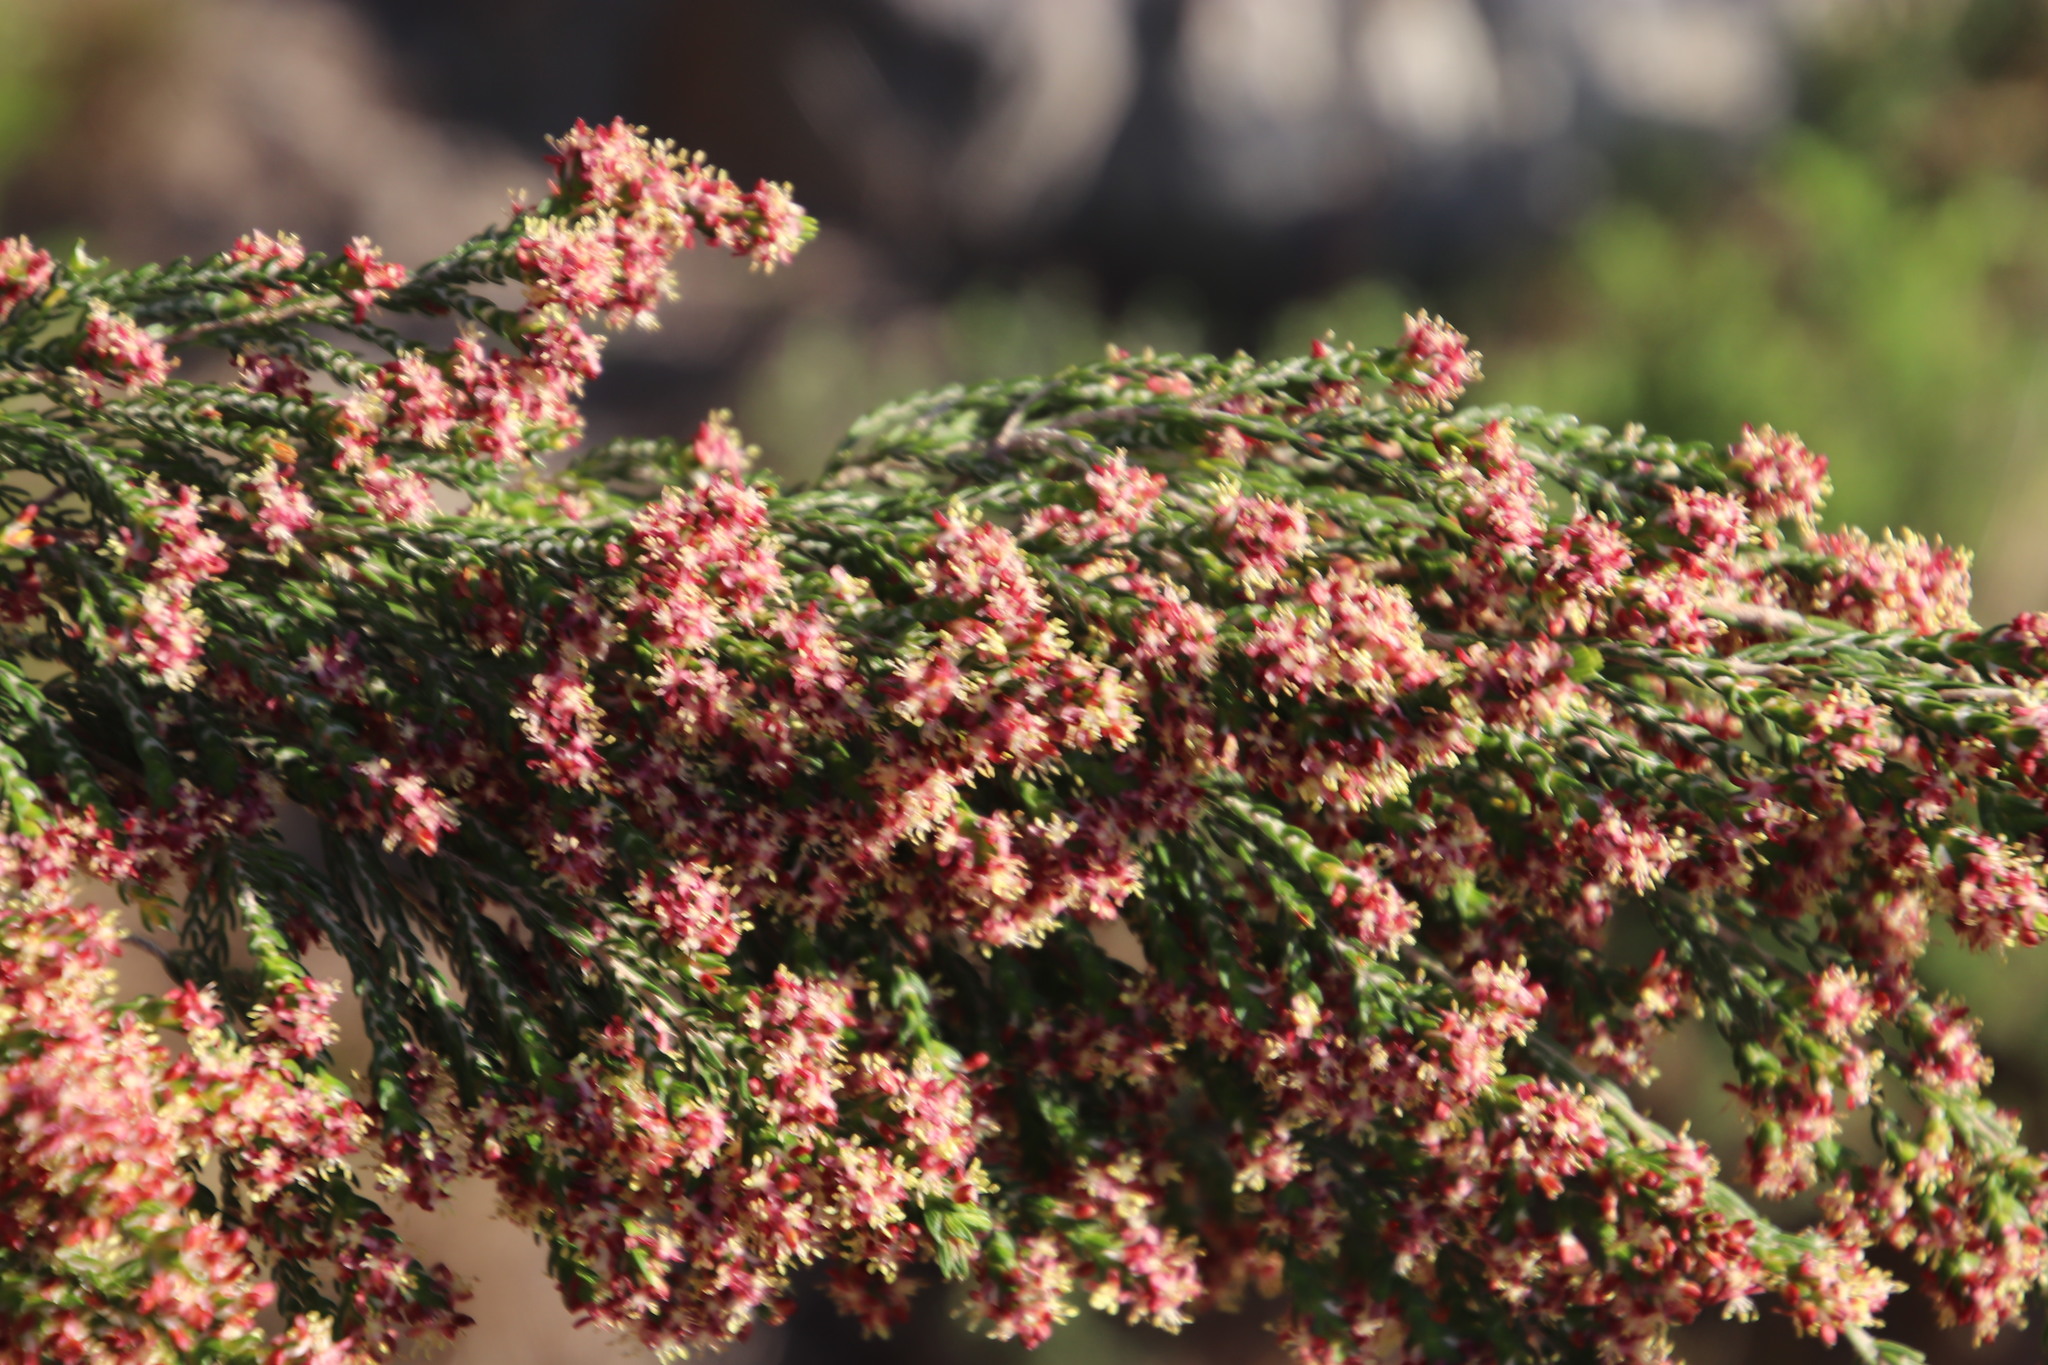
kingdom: Plantae
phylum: Tracheophyta
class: Magnoliopsida
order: Malvales
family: Thymelaeaceae
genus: Passerina
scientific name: Passerina corymbosa
